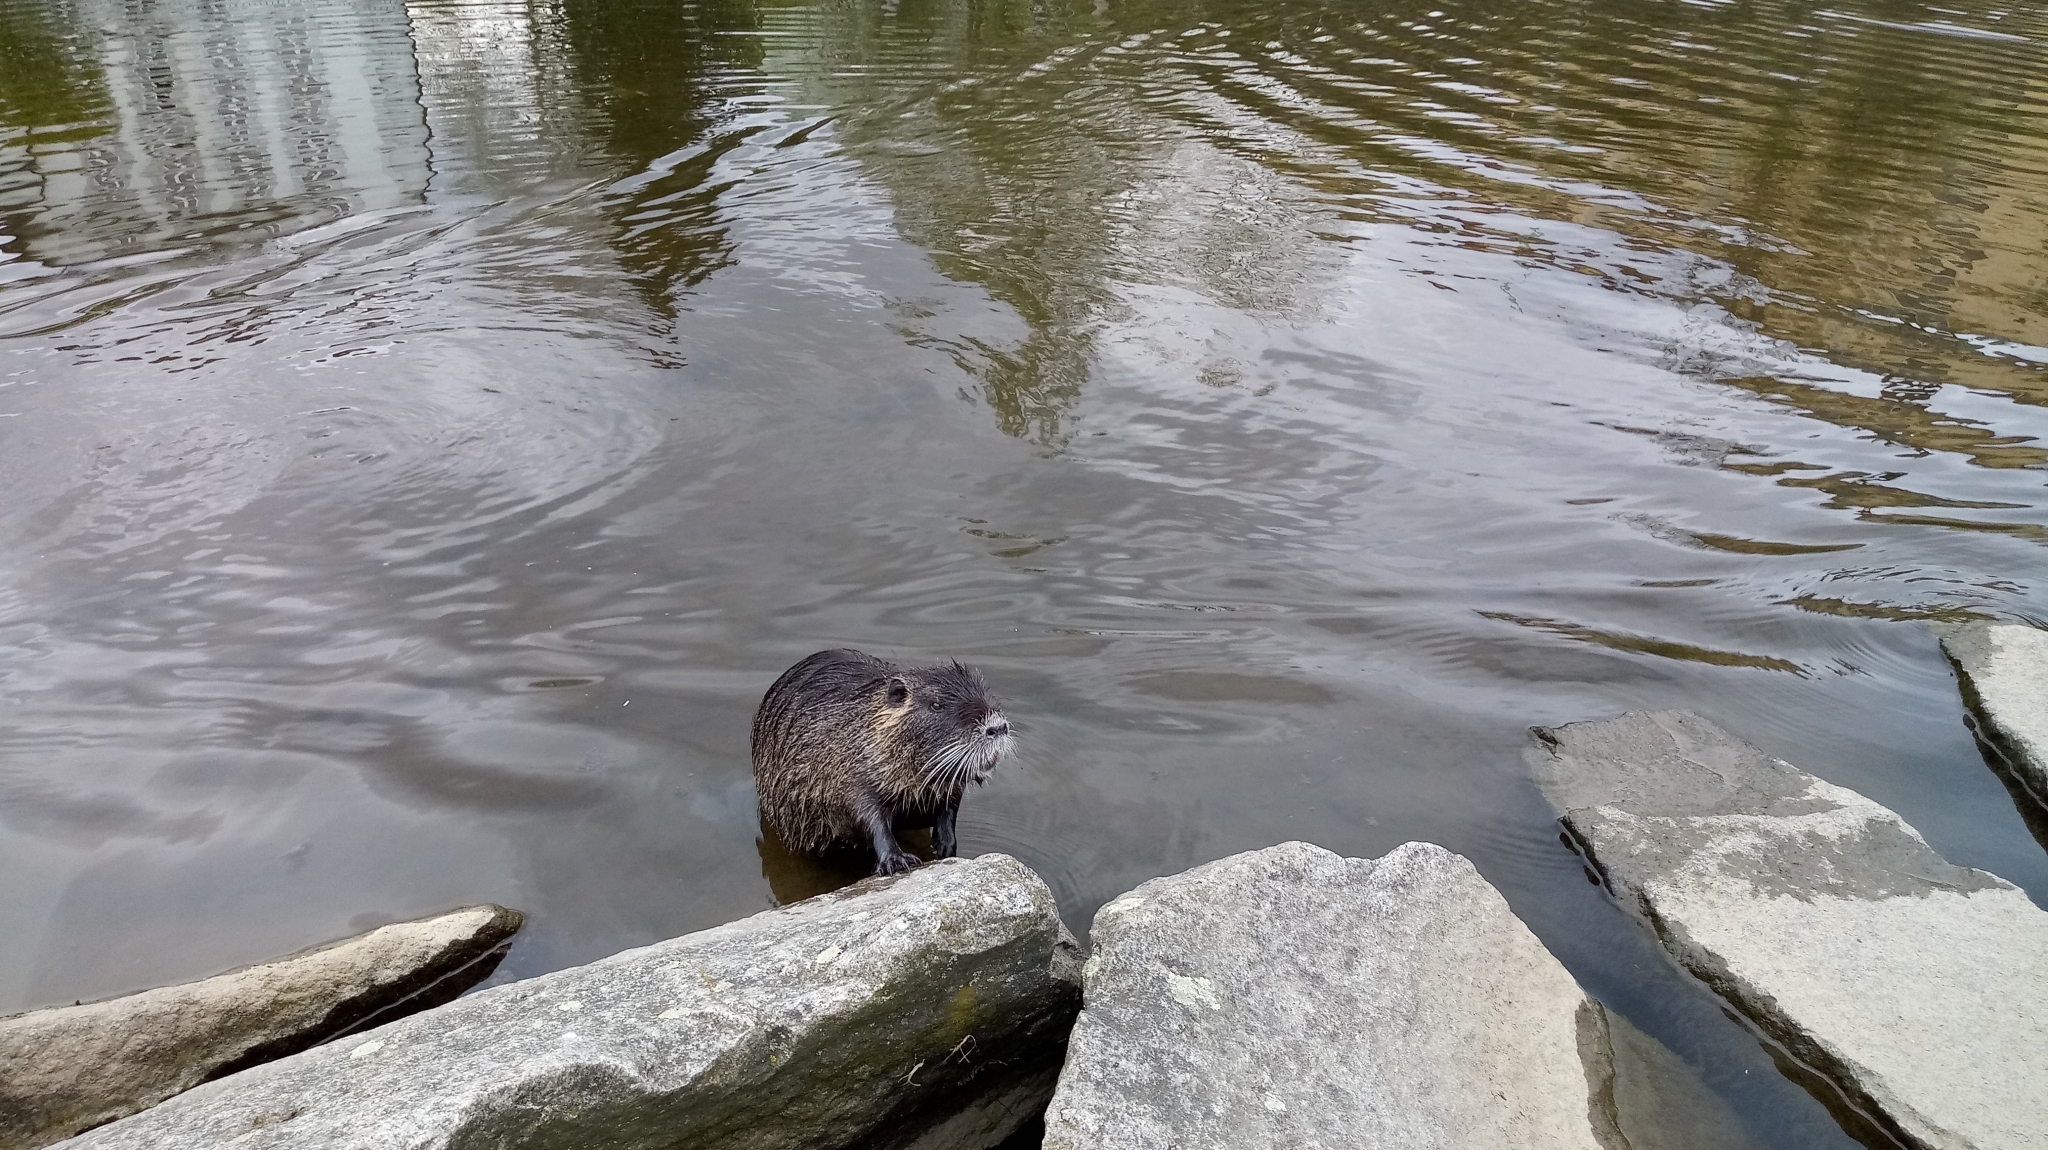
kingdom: Animalia
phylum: Chordata
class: Mammalia
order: Rodentia
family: Myocastoridae
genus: Myocastor
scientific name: Myocastor coypus
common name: Coypu
